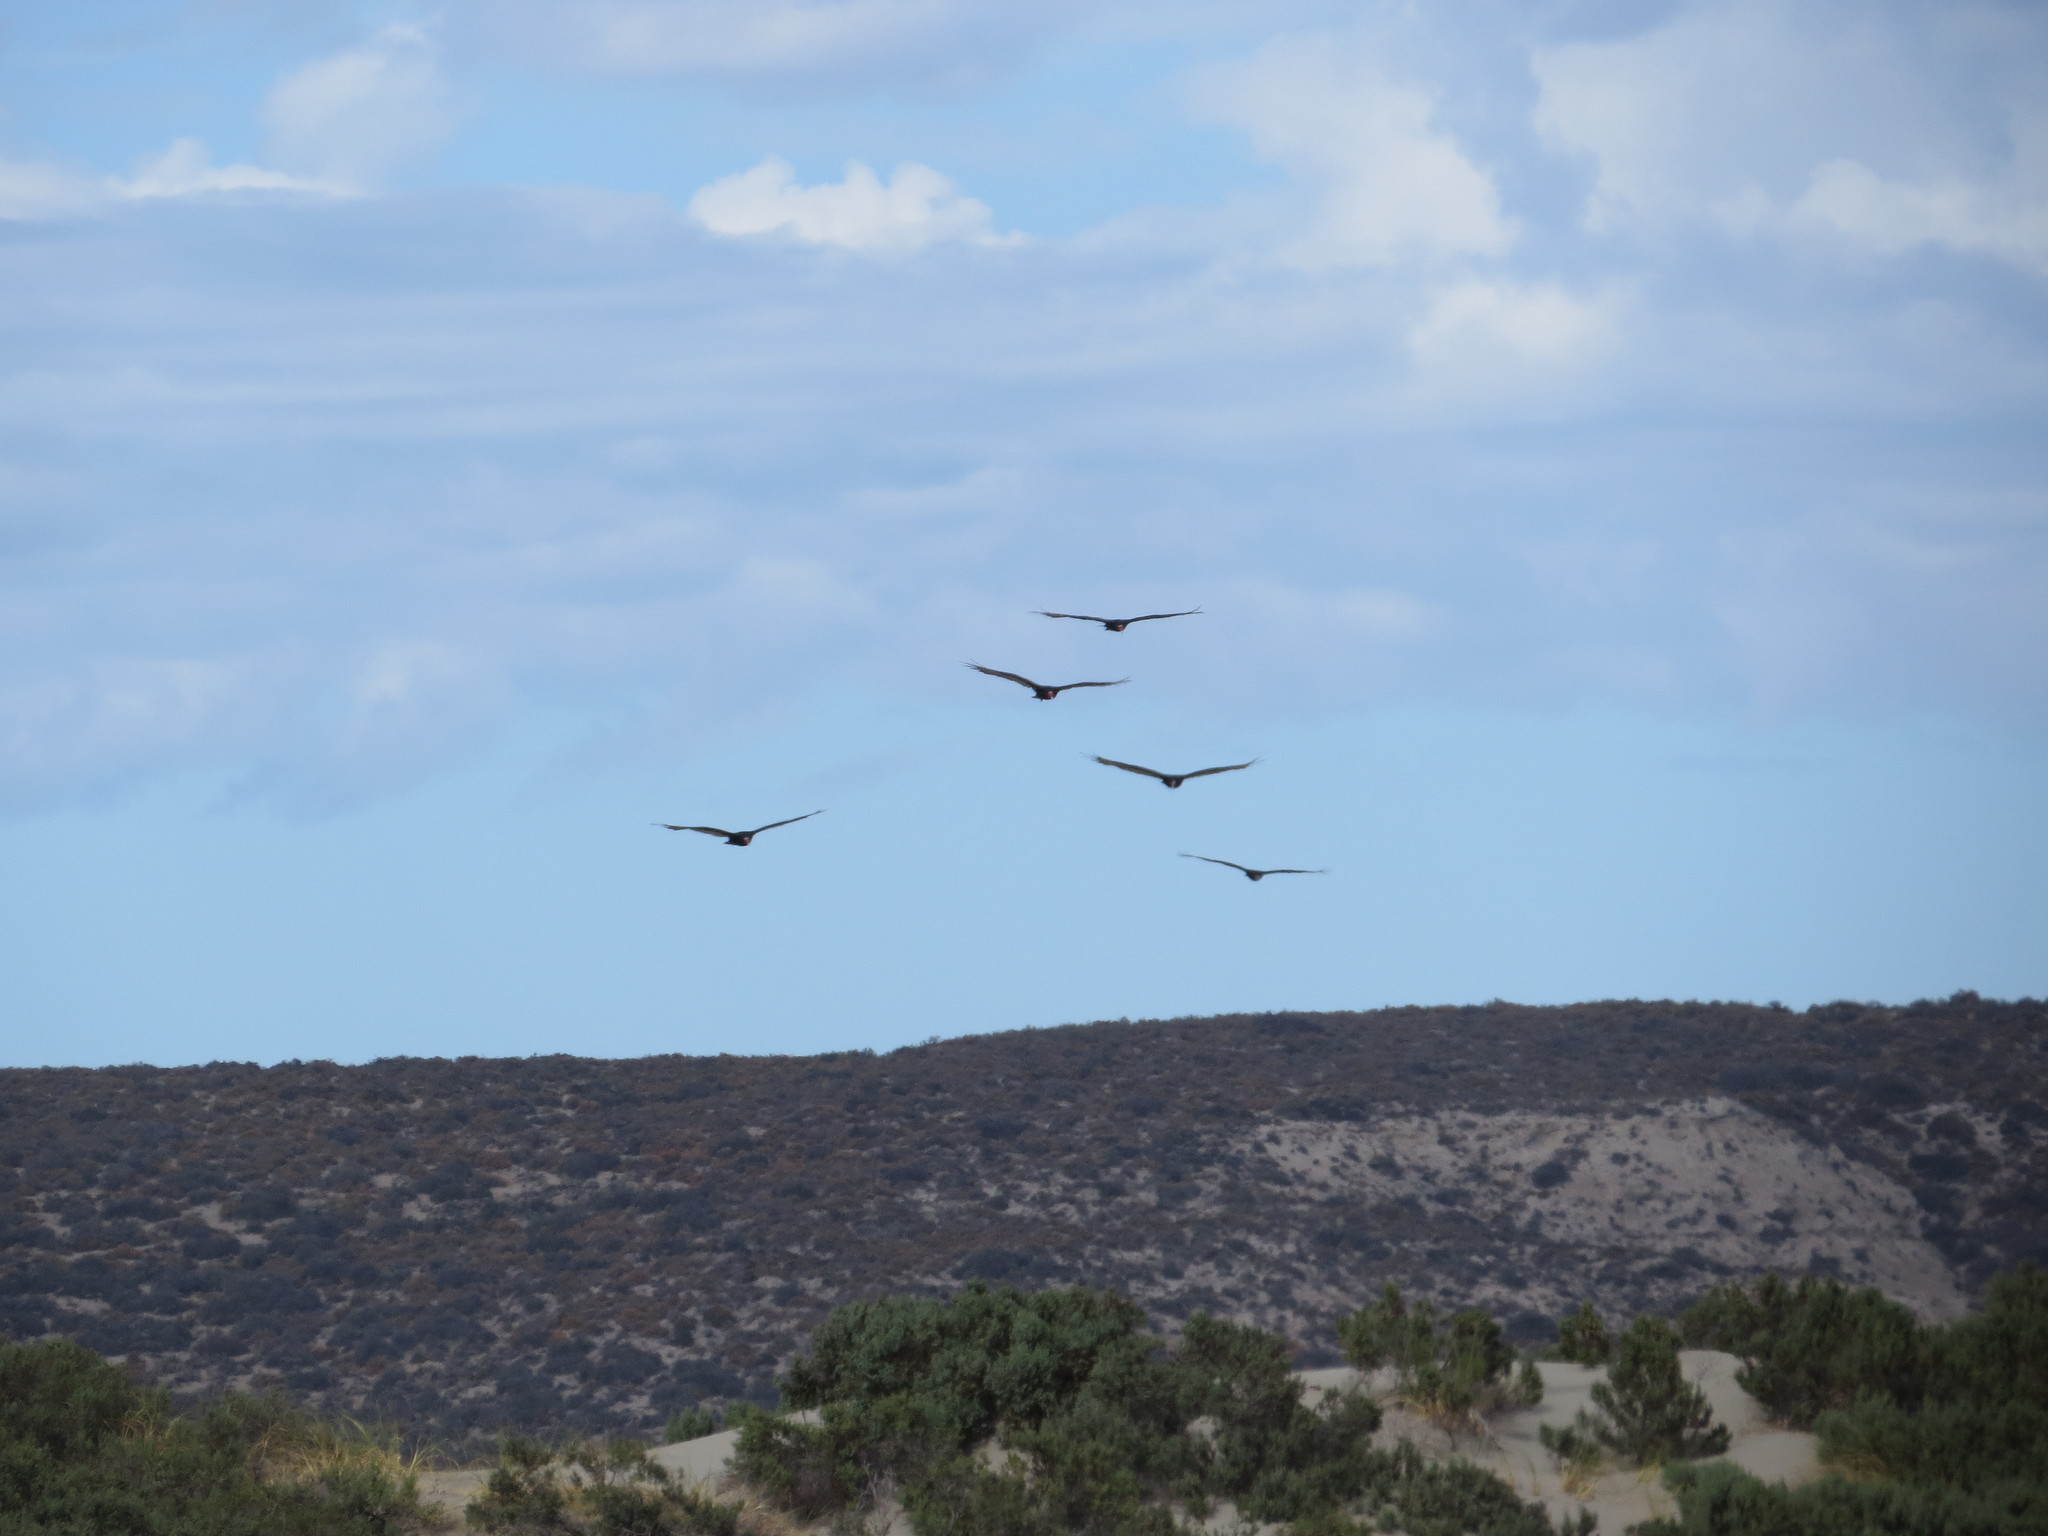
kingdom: Animalia
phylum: Chordata
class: Aves
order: Accipitriformes
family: Cathartidae
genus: Cathartes
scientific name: Cathartes aura
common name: Turkey vulture
